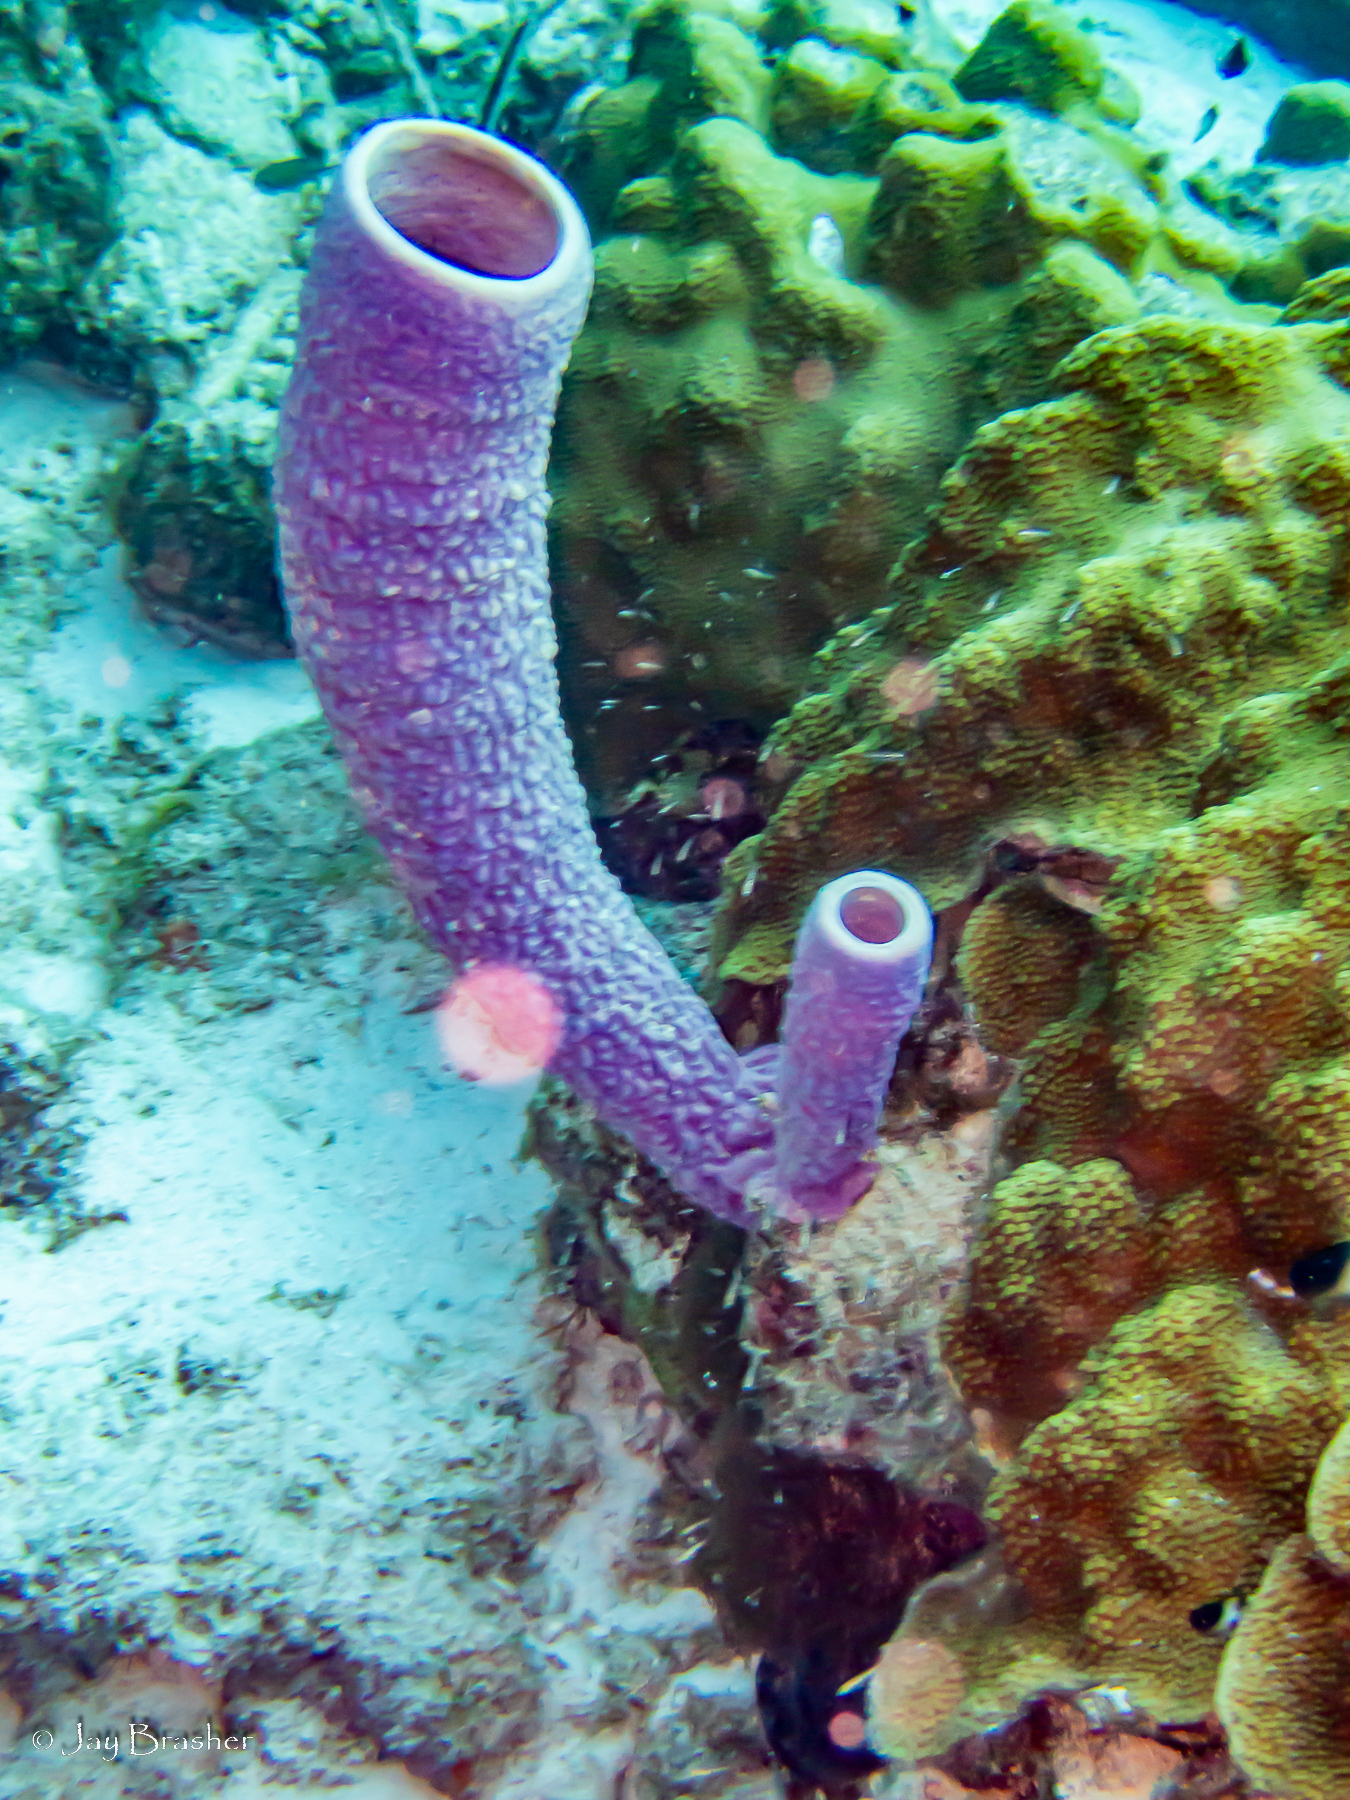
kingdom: Animalia
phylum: Porifera
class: Demospongiae
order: Verongiida
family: Aplysinidae
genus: Aplysina
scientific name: Aplysina archeri
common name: Stove-pipe sponge
